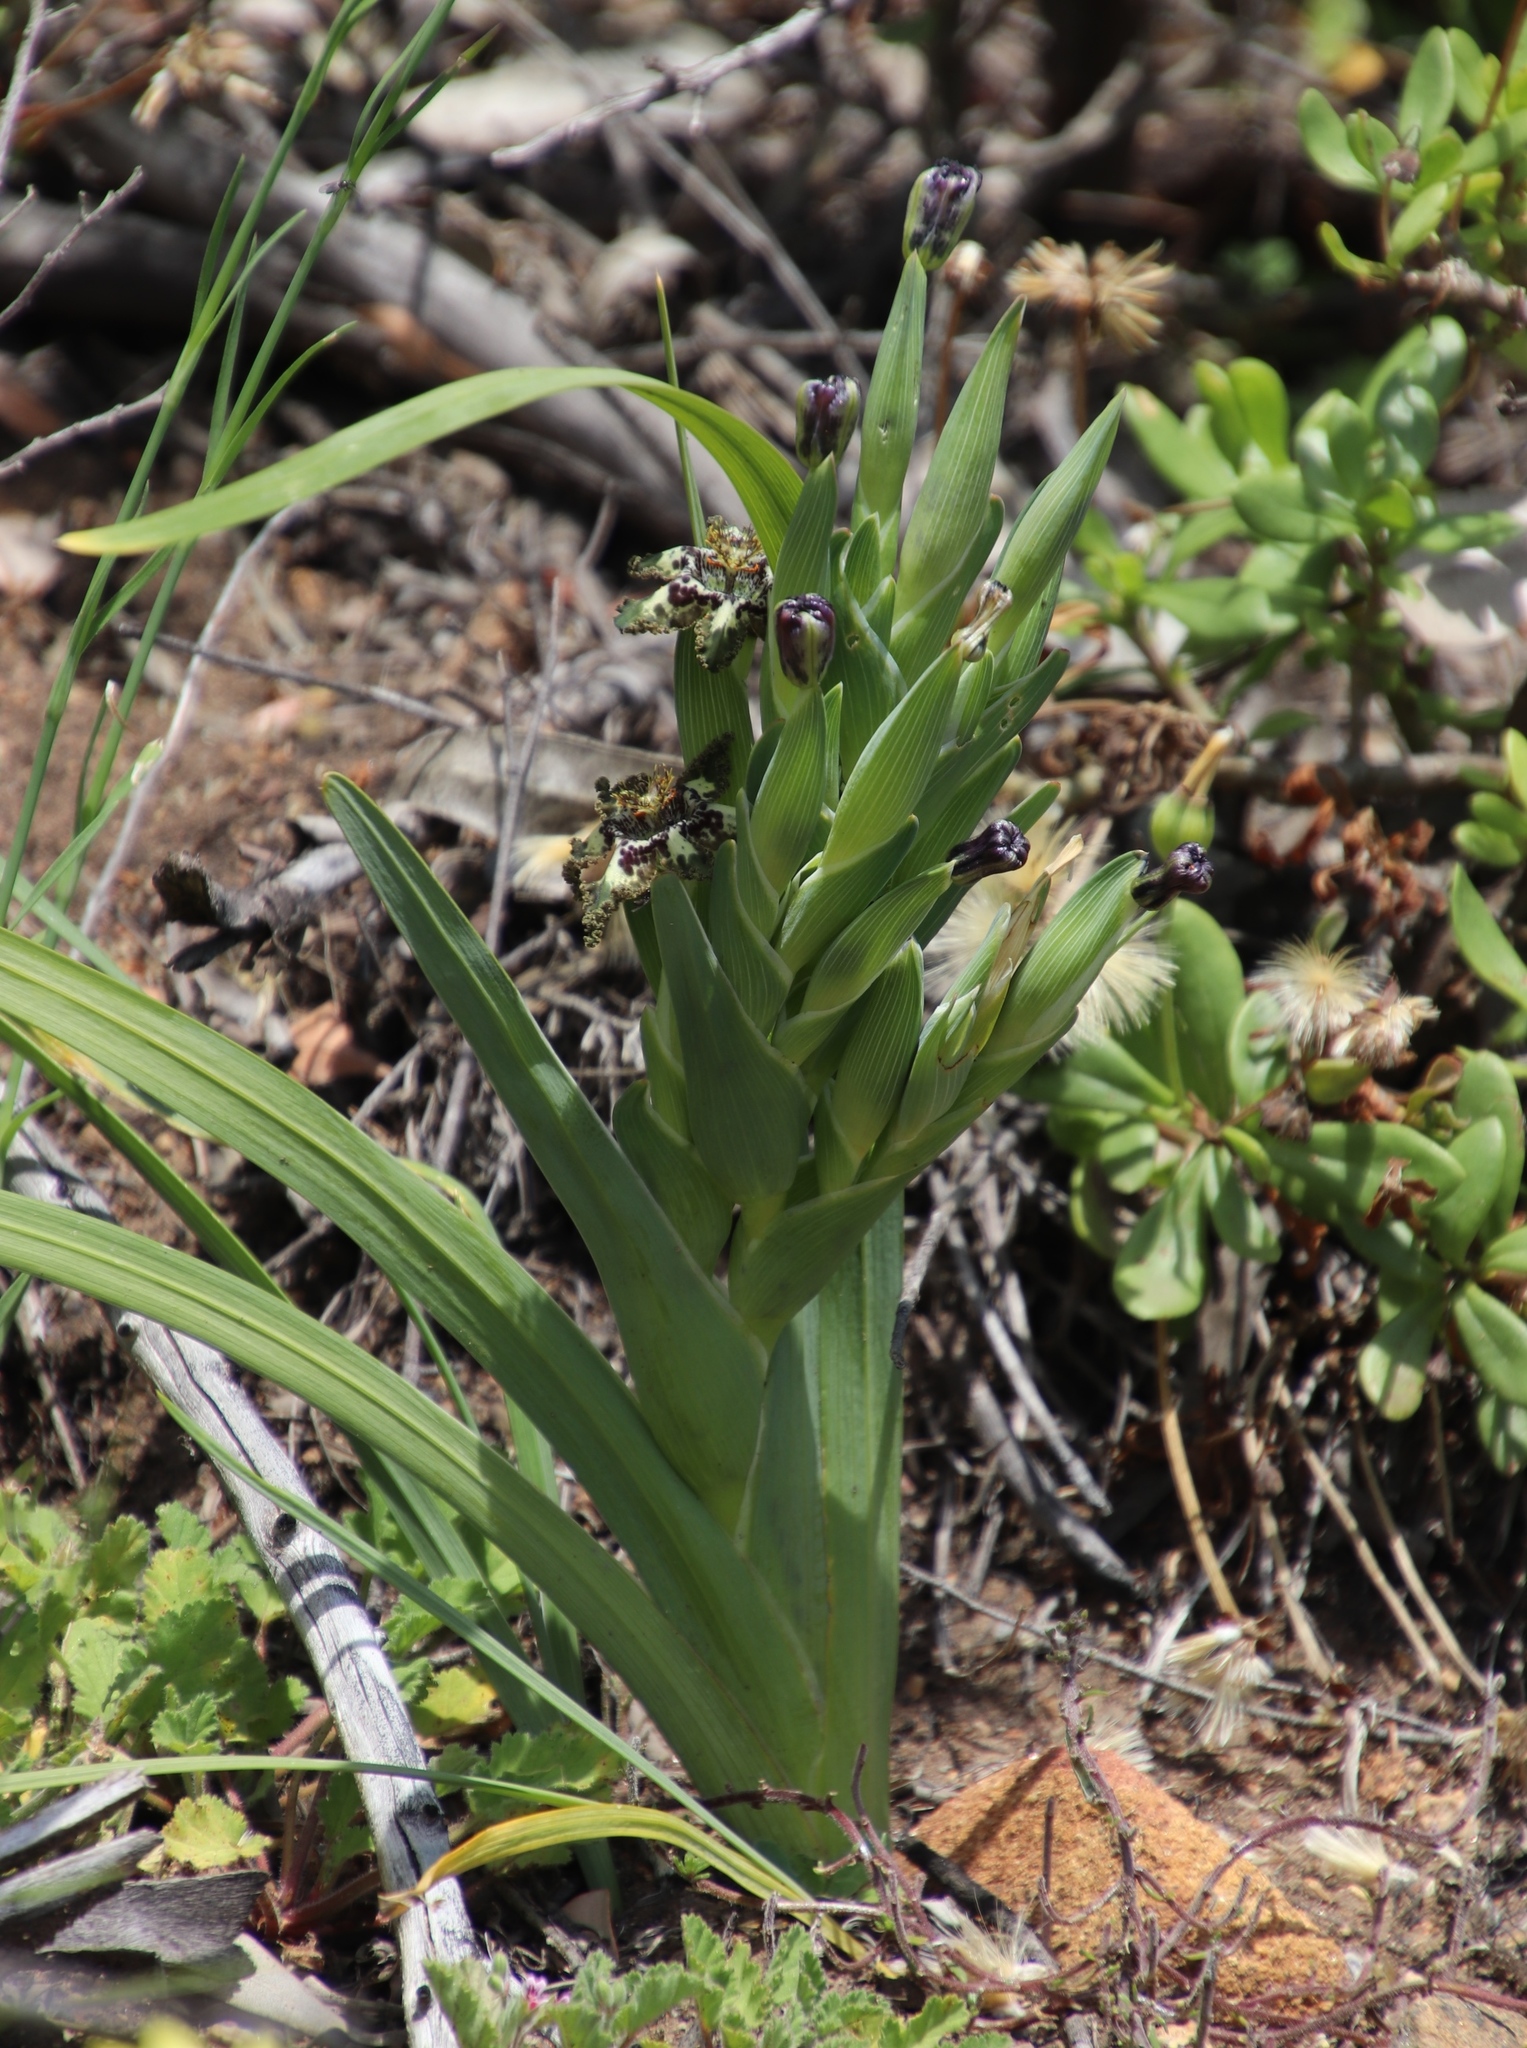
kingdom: Plantae
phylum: Tracheophyta
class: Liliopsida
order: Asparagales
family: Iridaceae
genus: Ferraria
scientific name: Ferraria crispa
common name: Black-flag
